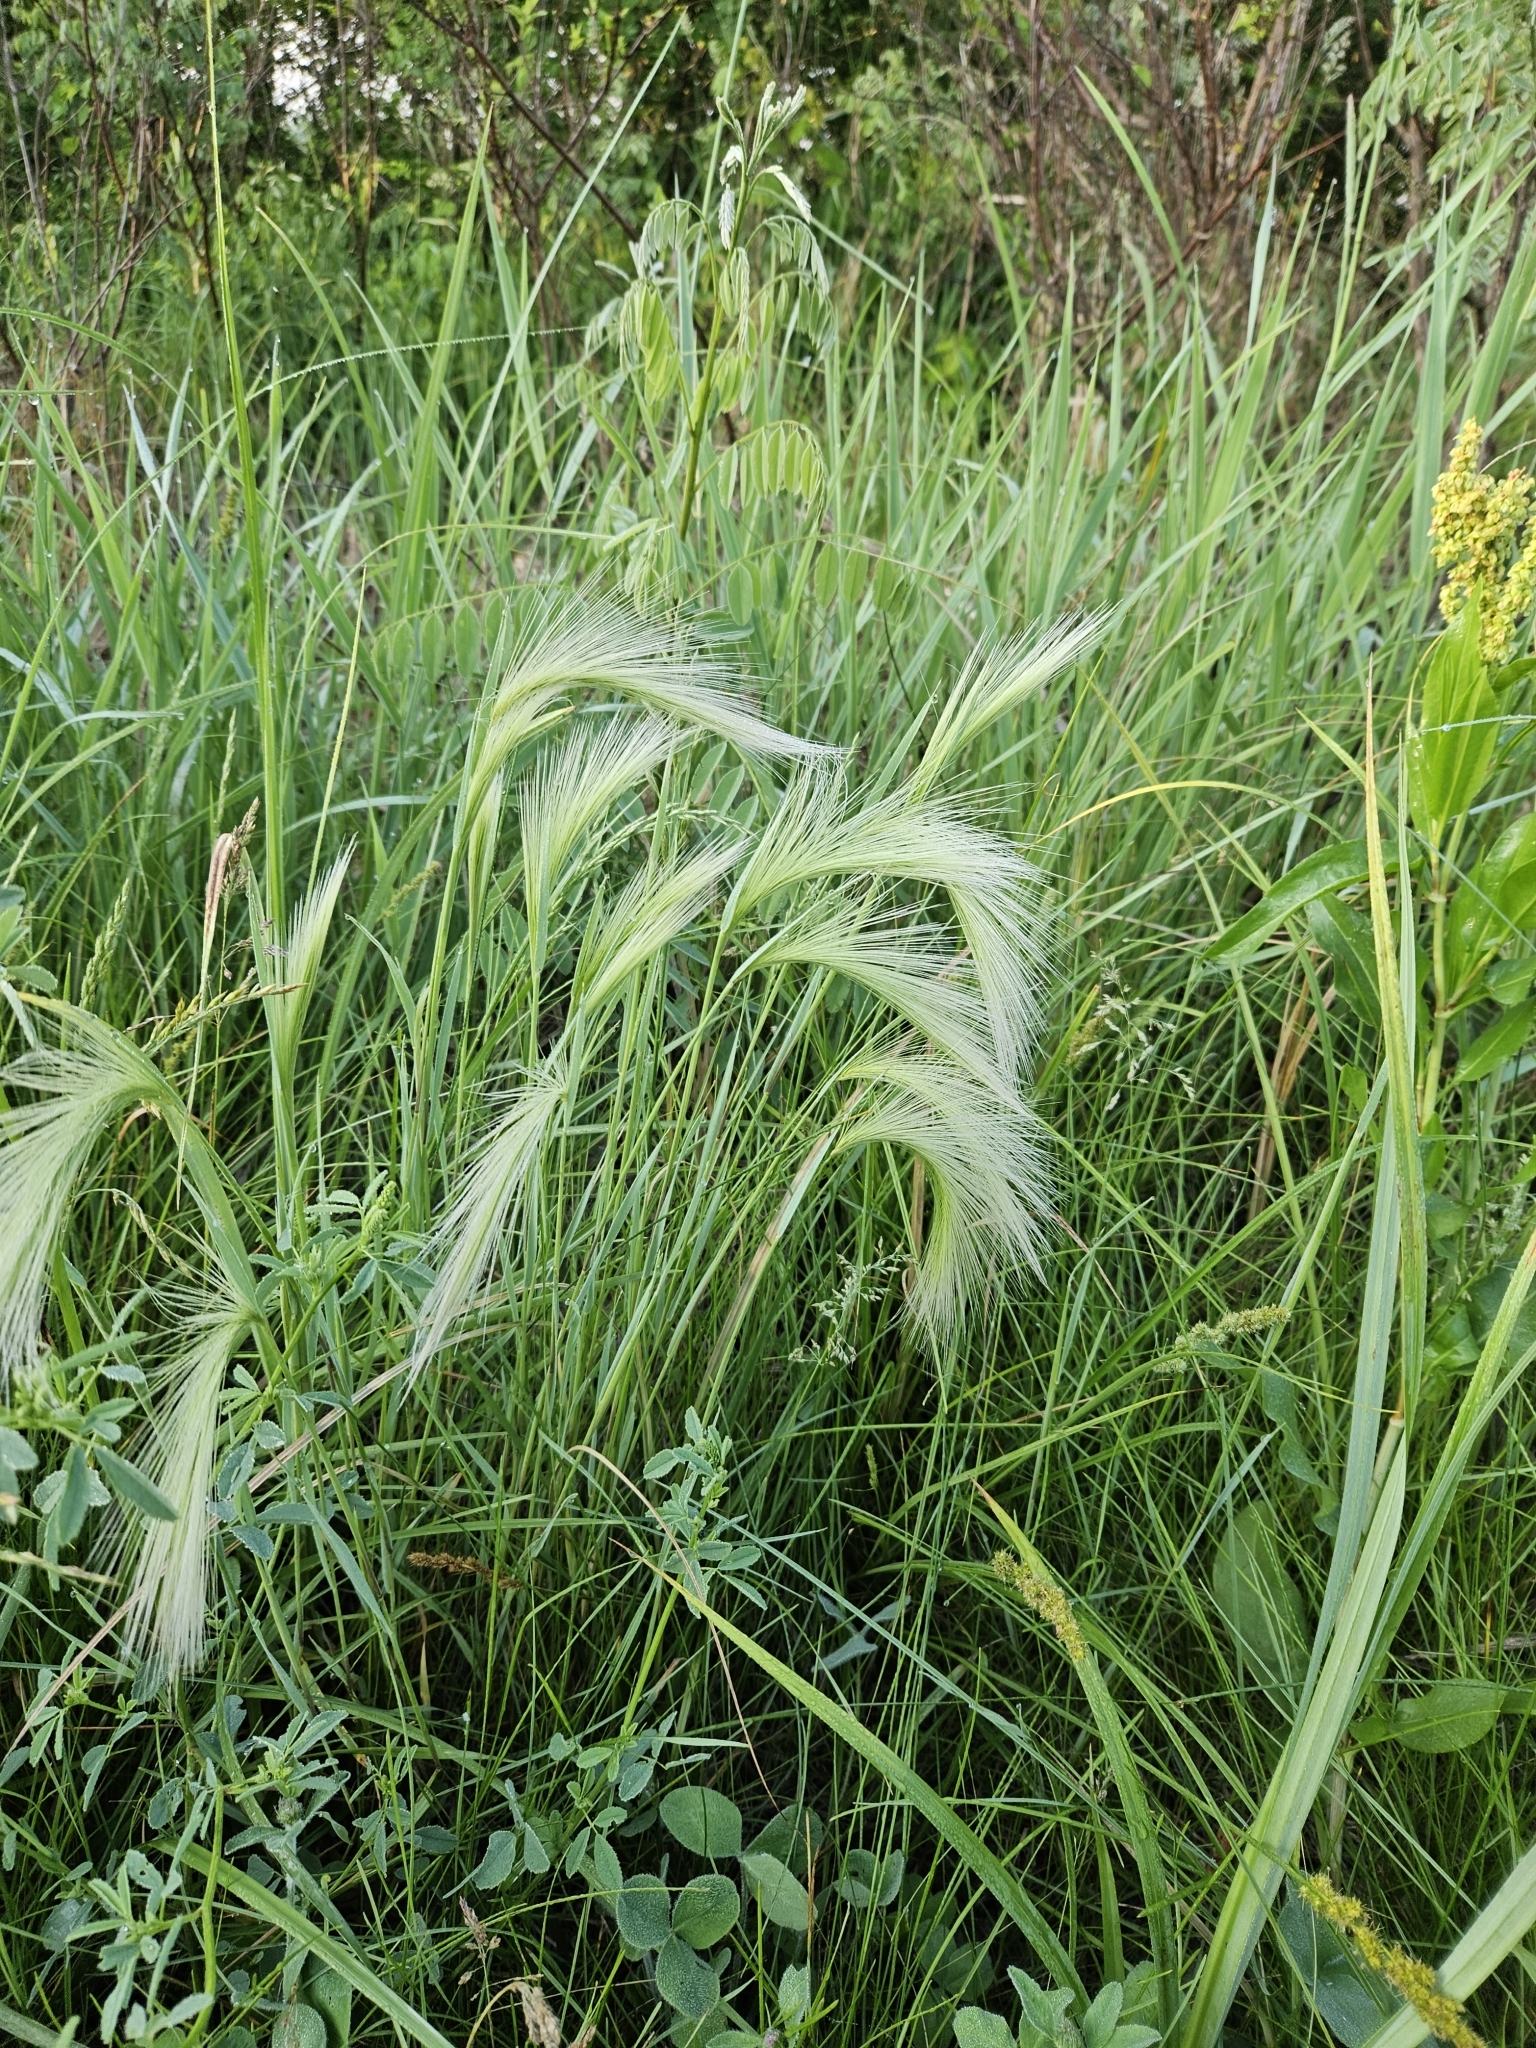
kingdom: Plantae
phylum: Tracheophyta
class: Liliopsida
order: Poales
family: Poaceae
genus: Hordeum
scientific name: Hordeum jubatum
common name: Foxtail barley
